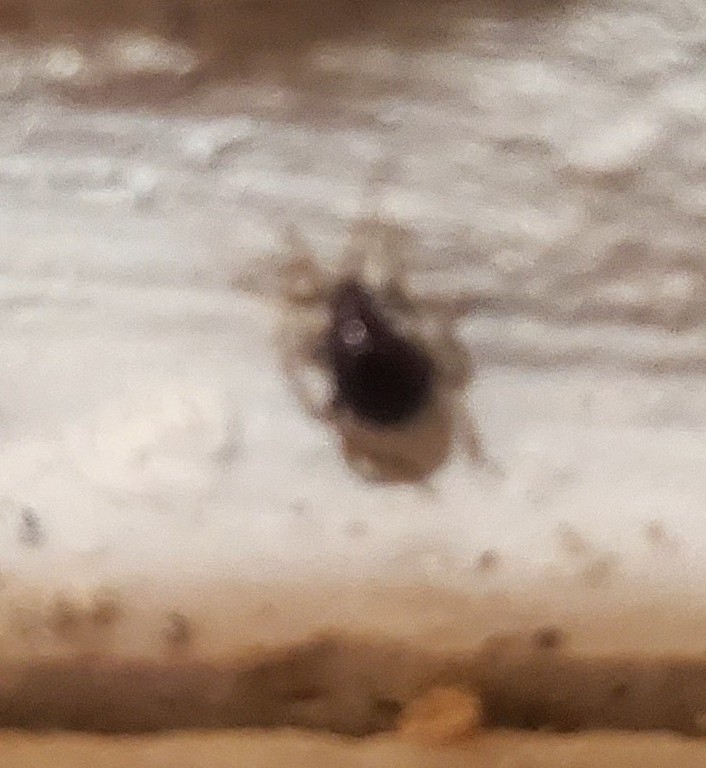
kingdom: Animalia
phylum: Arthropoda
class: Insecta
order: Coleoptera
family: Ptinidae
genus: Gibbium
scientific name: Gibbium aequinoctiale
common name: Smooth spider beetle
